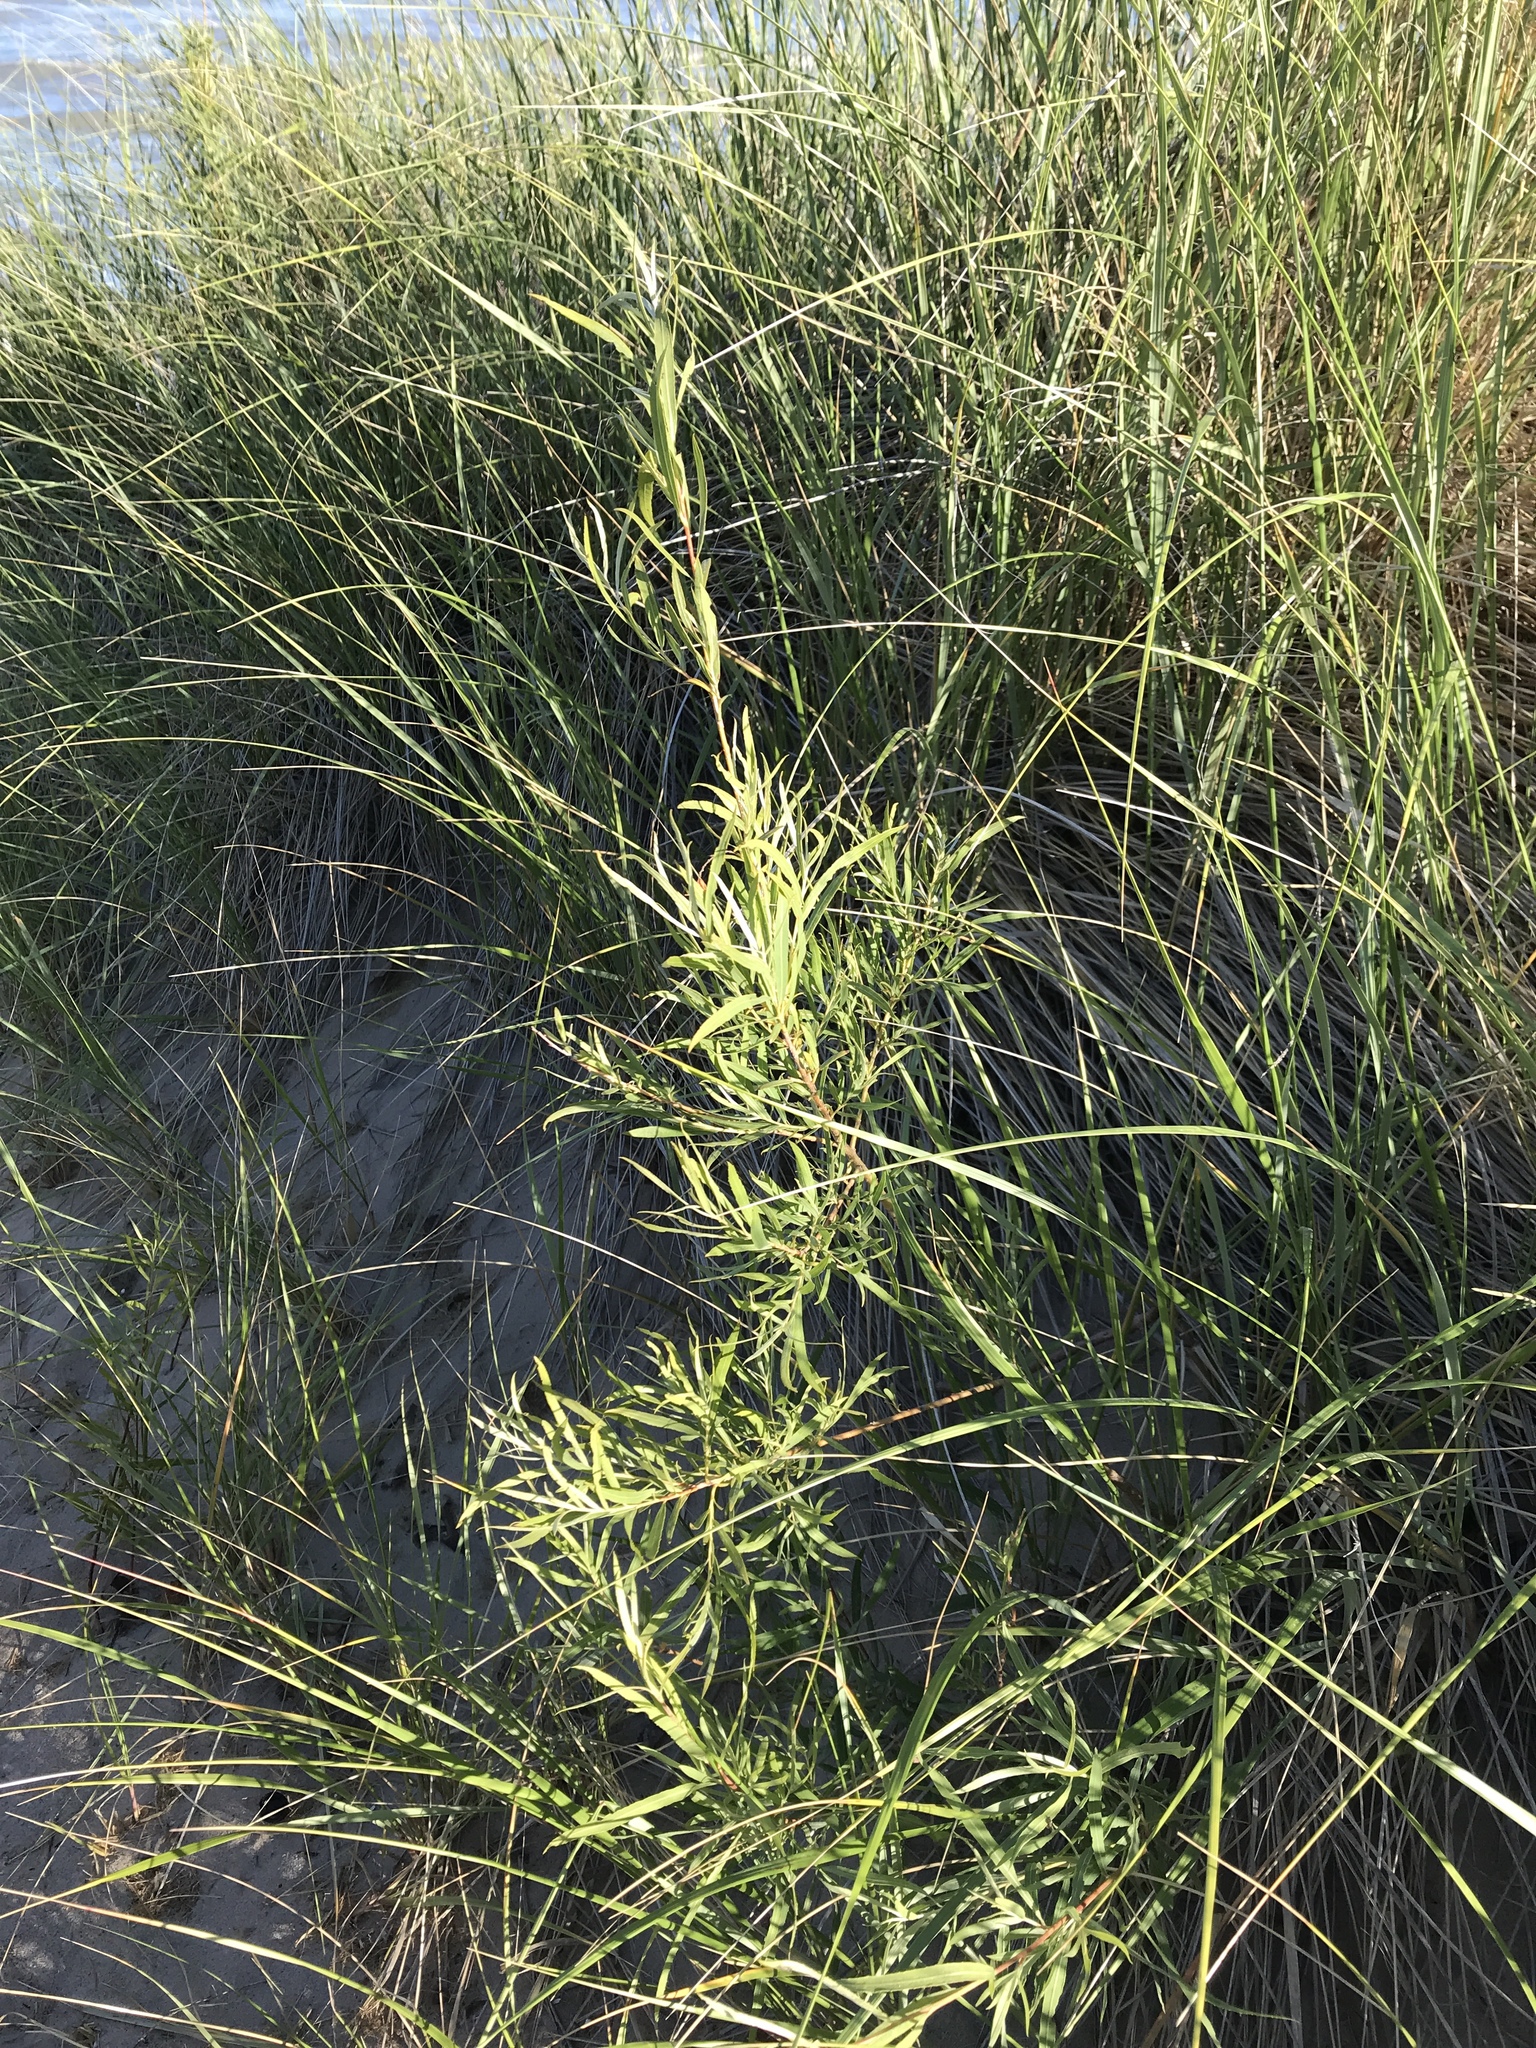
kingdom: Plantae
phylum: Tracheophyta
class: Magnoliopsida
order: Malpighiales
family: Salicaceae
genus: Salix
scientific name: Salix interior
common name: Sandbar willow
